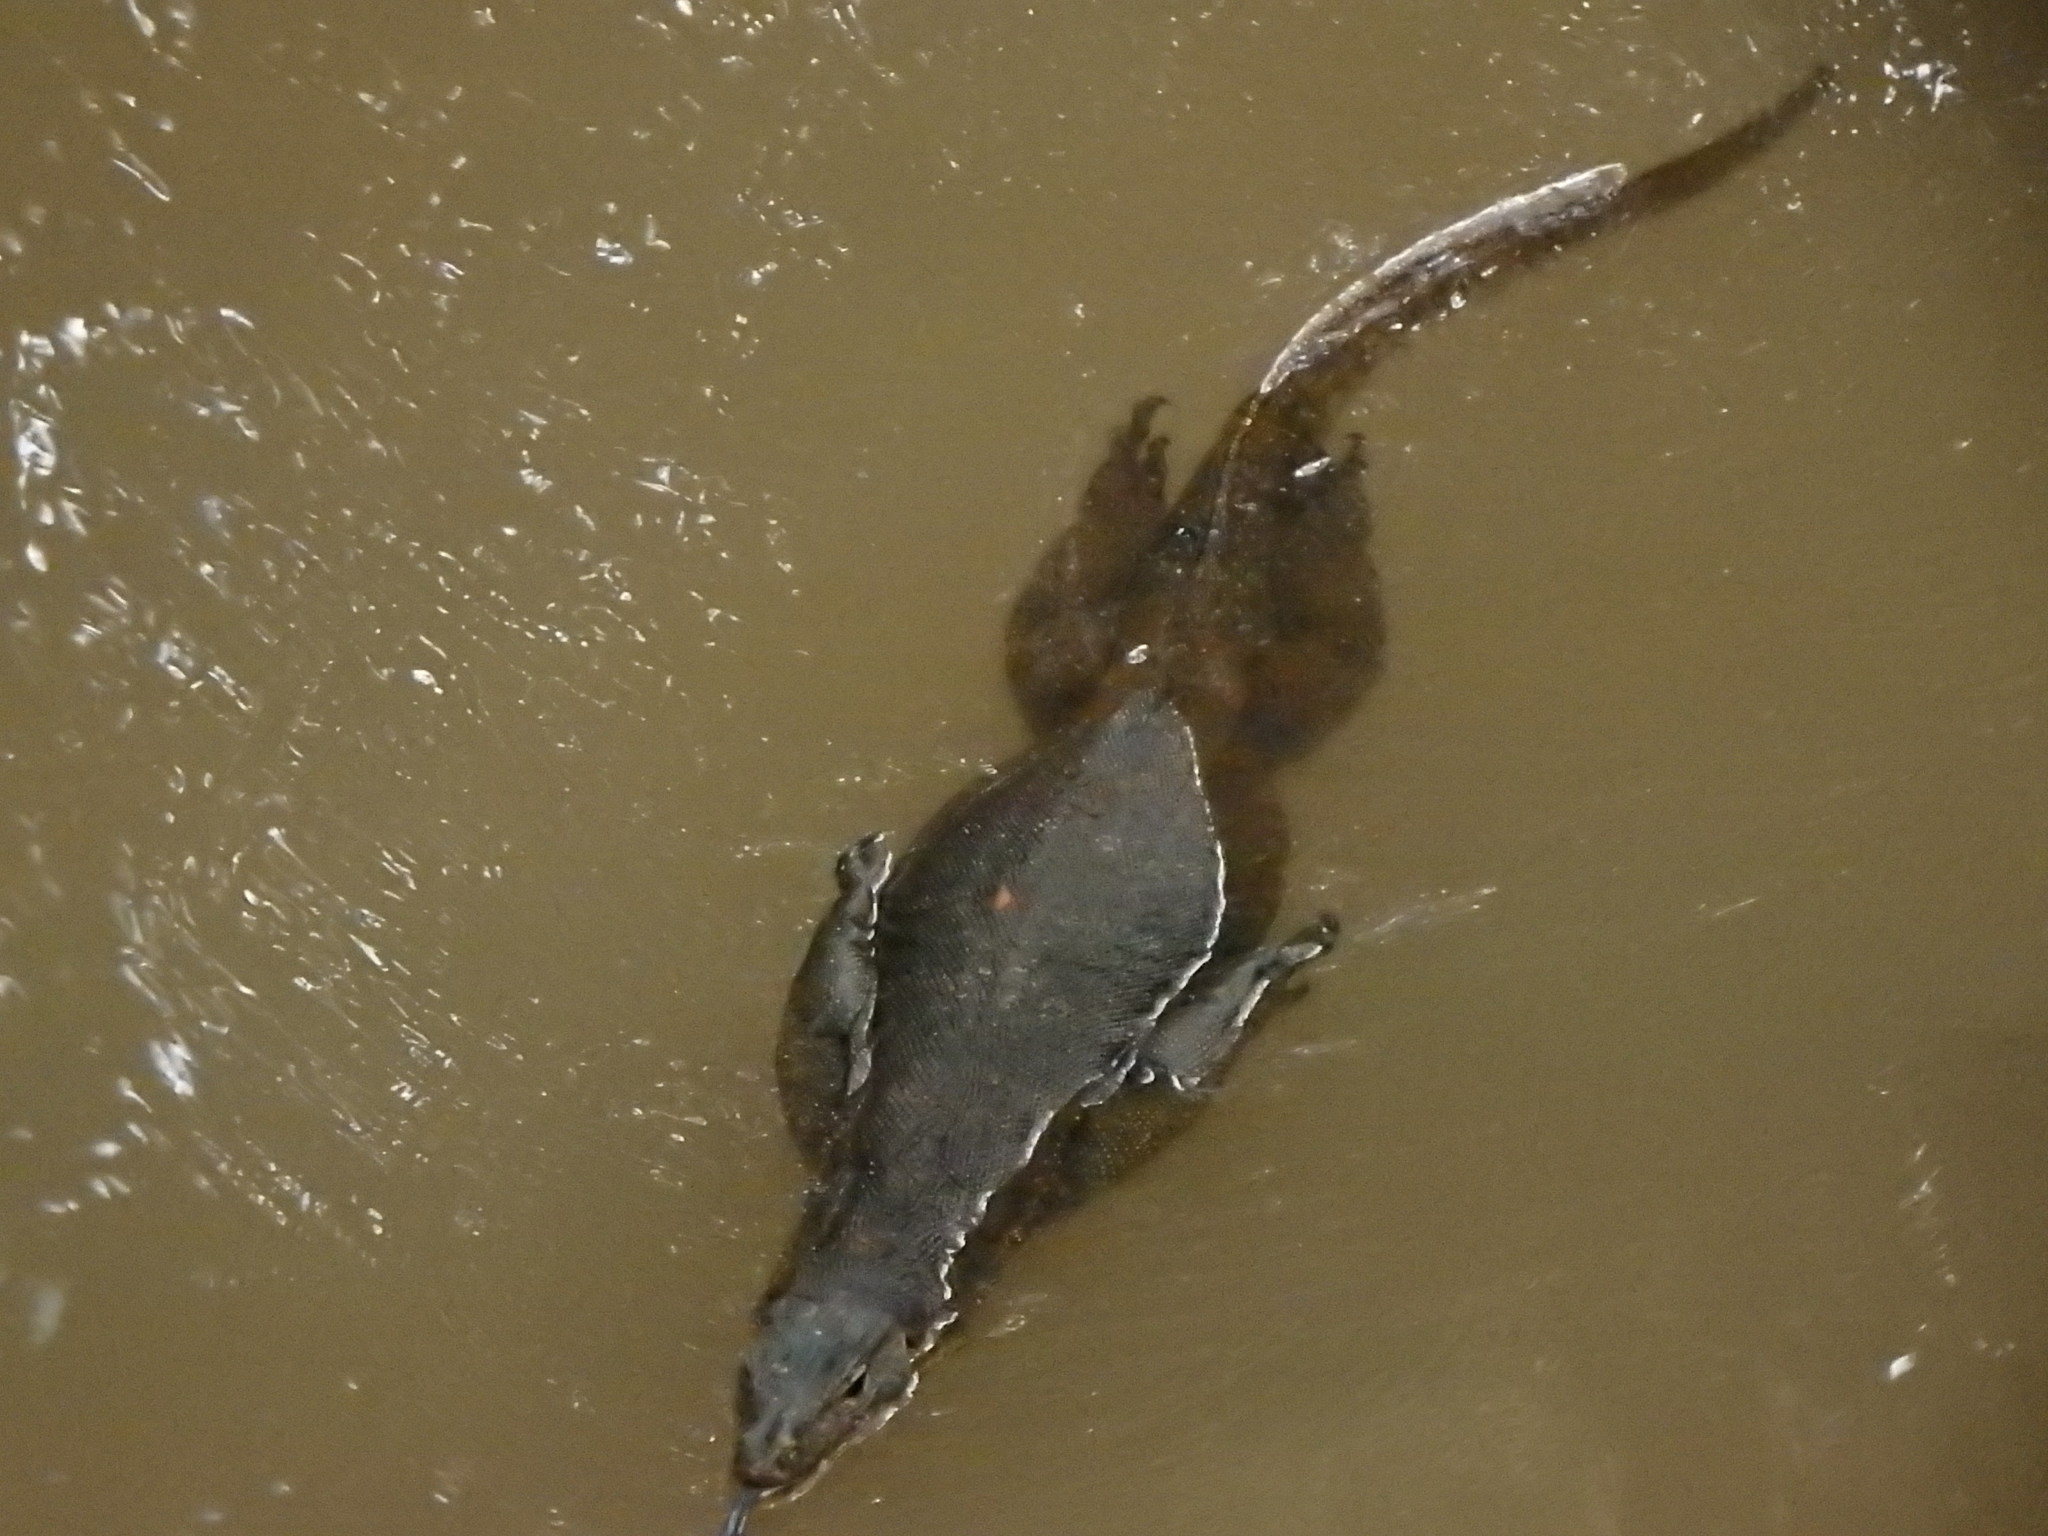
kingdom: Animalia
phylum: Chordata
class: Squamata
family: Varanidae
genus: Varanus
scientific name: Varanus salvator
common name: Common water monitor
